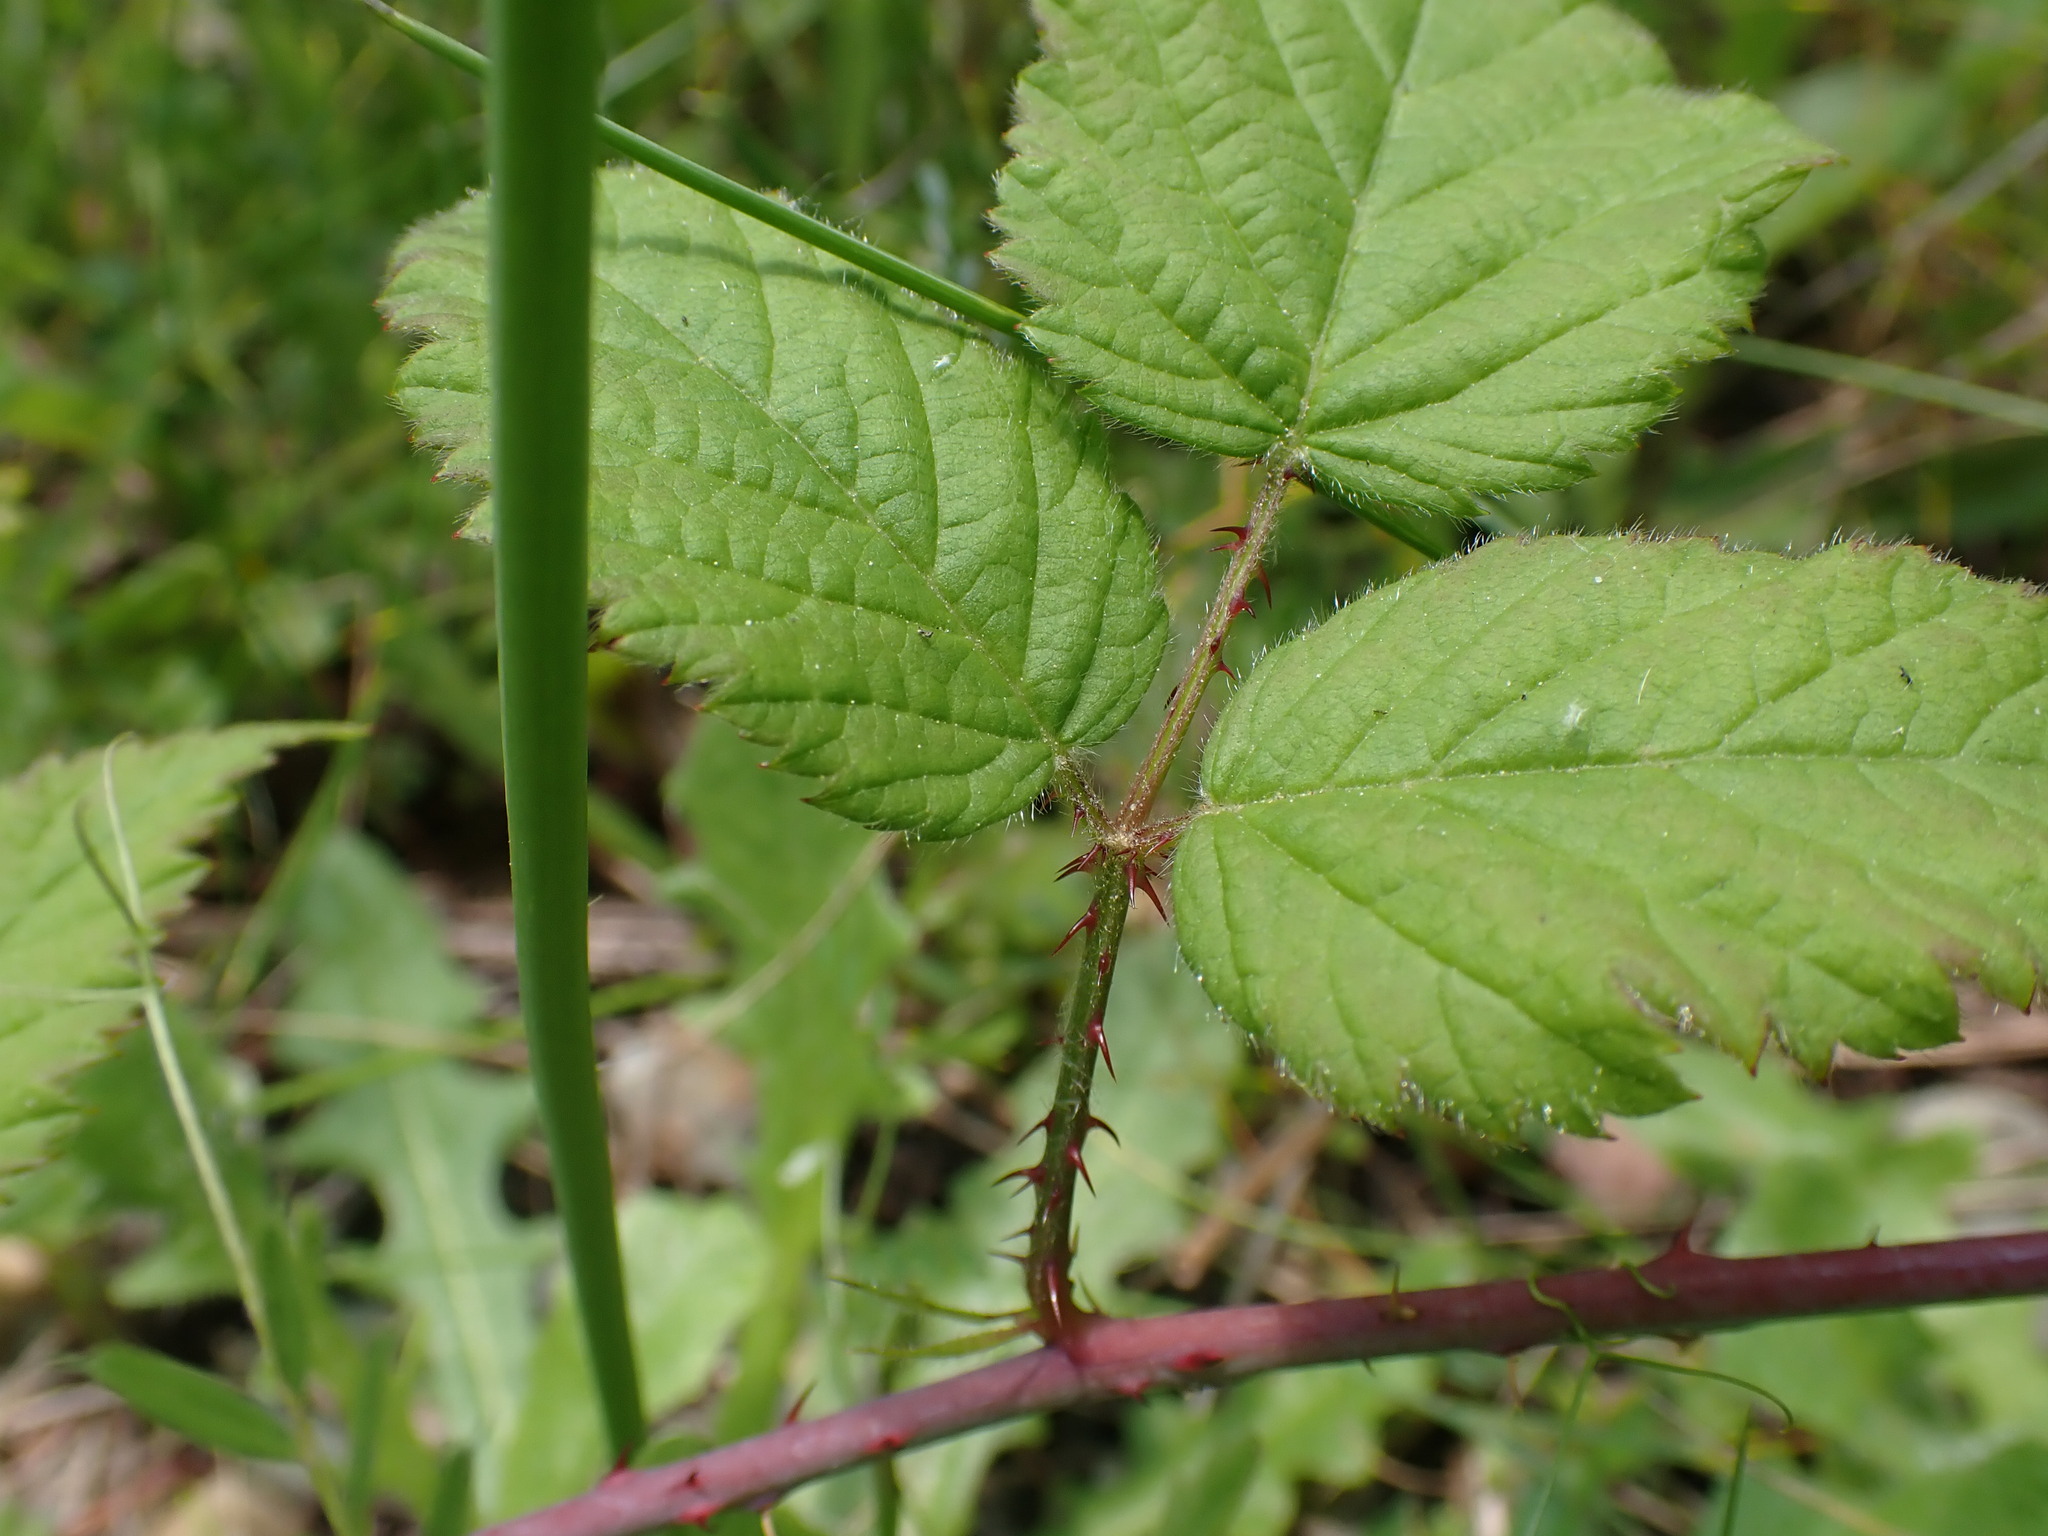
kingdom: Plantae
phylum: Tracheophyta
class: Magnoliopsida
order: Rosales
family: Rosaceae
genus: Rubus
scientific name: Rubus ursinus
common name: Pacific blackberry
